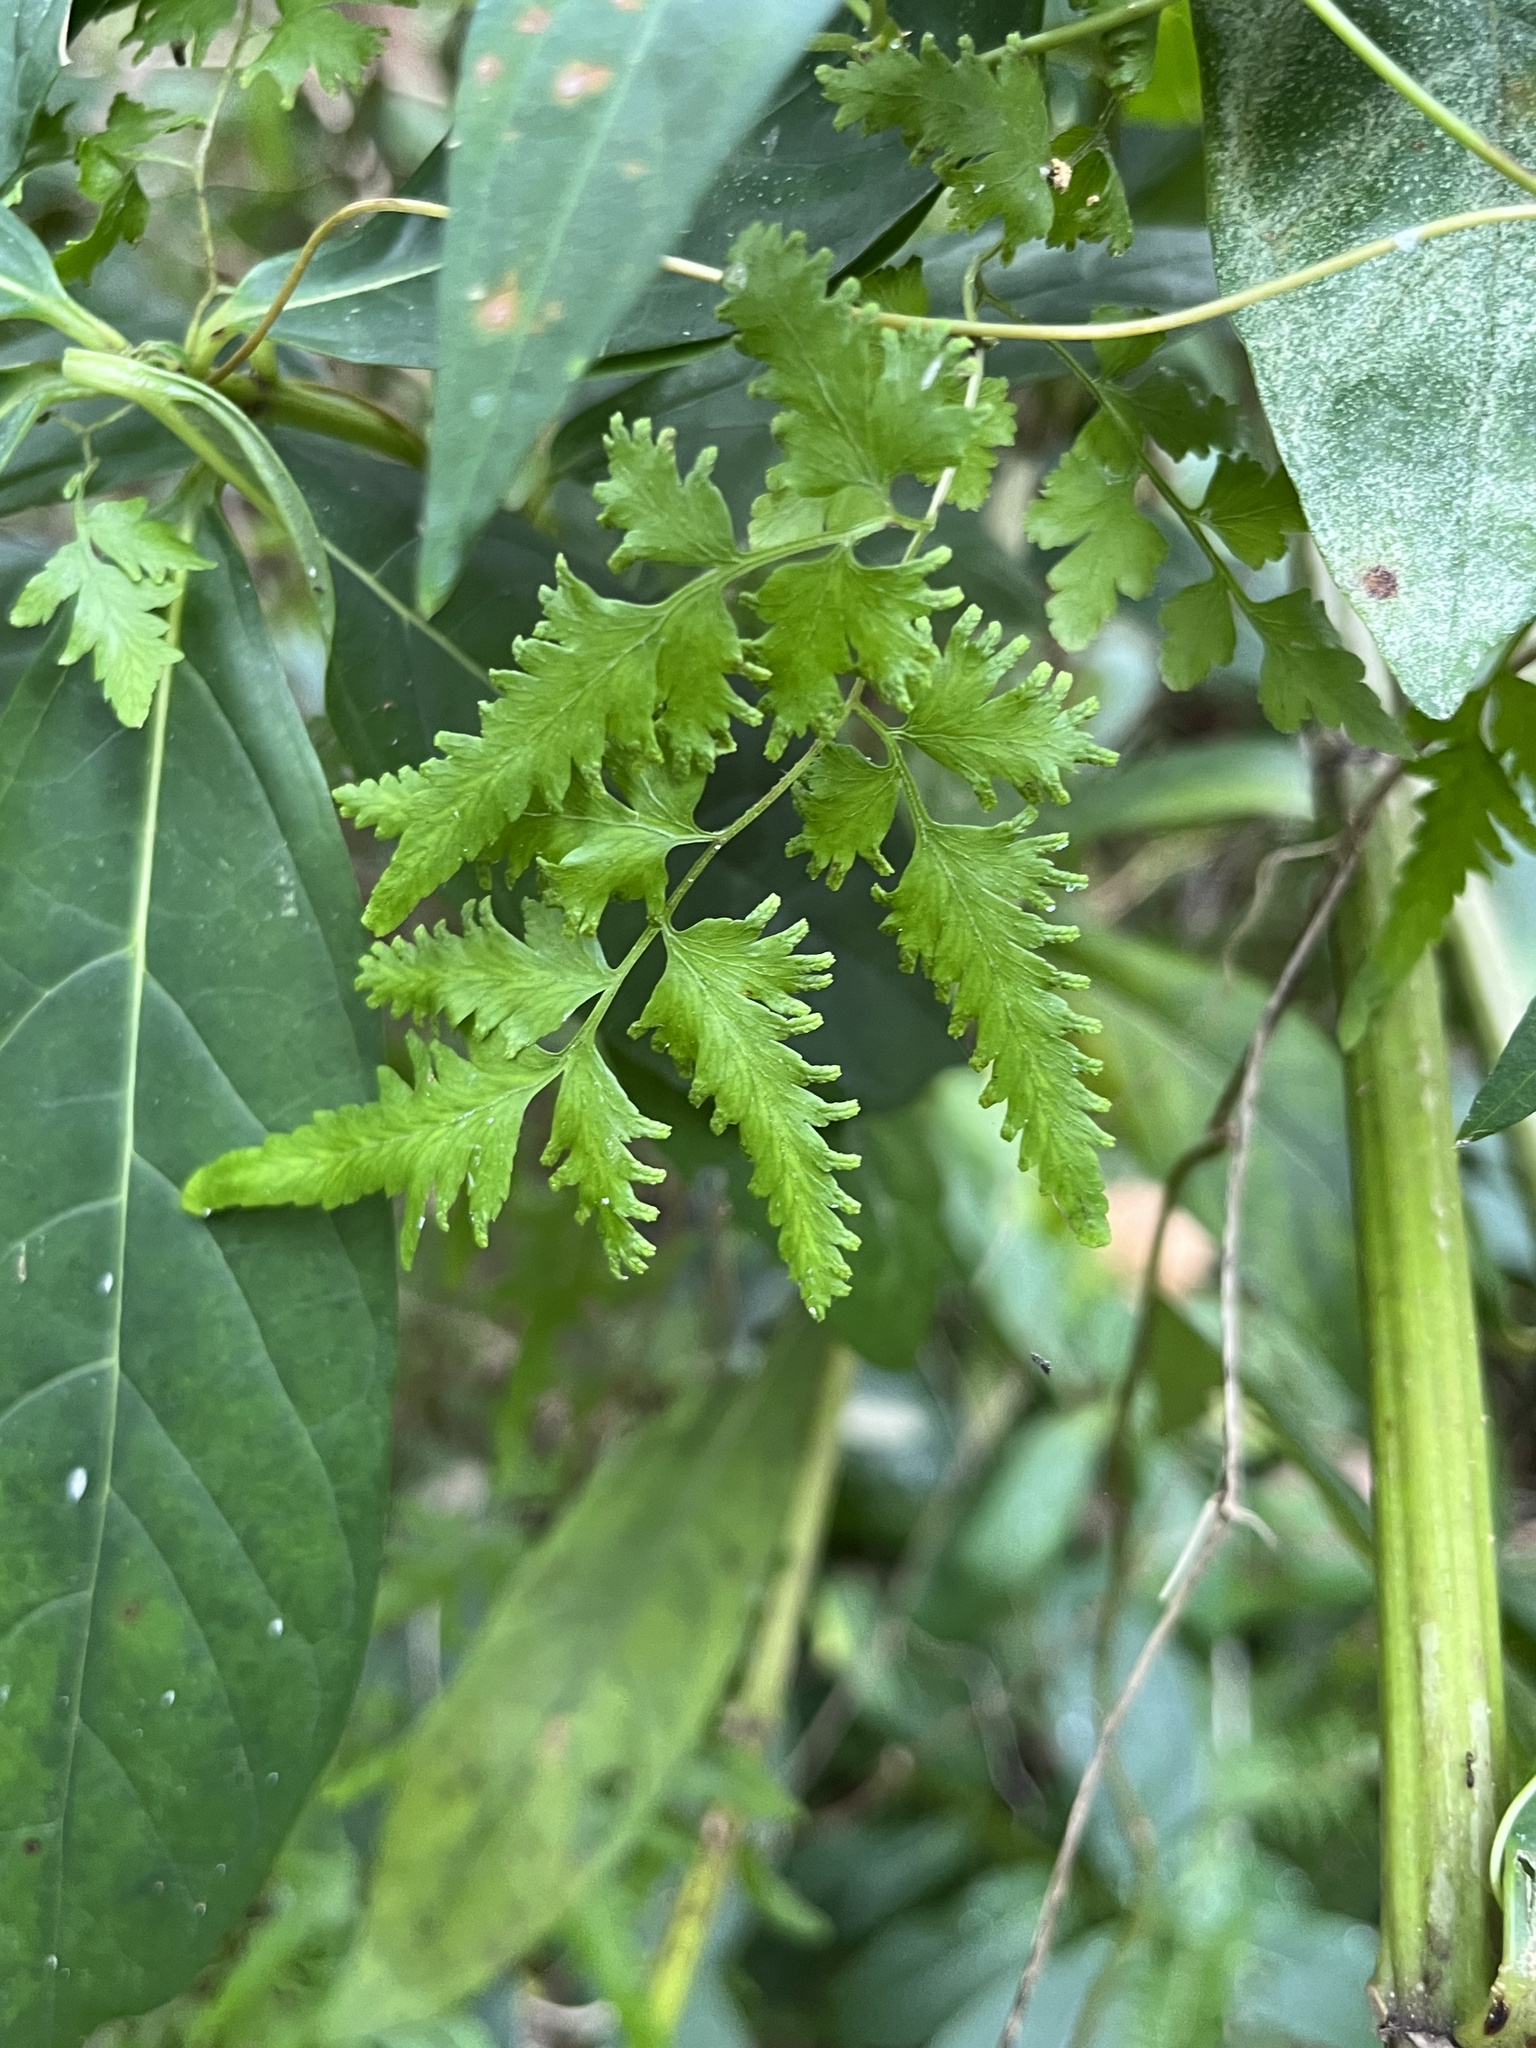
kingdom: Plantae
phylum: Tracheophyta
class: Polypodiopsida
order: Schizaeales
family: Lygodiaceae
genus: Lygodium
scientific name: Lygodium japonicum
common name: Japanese climbing fern
